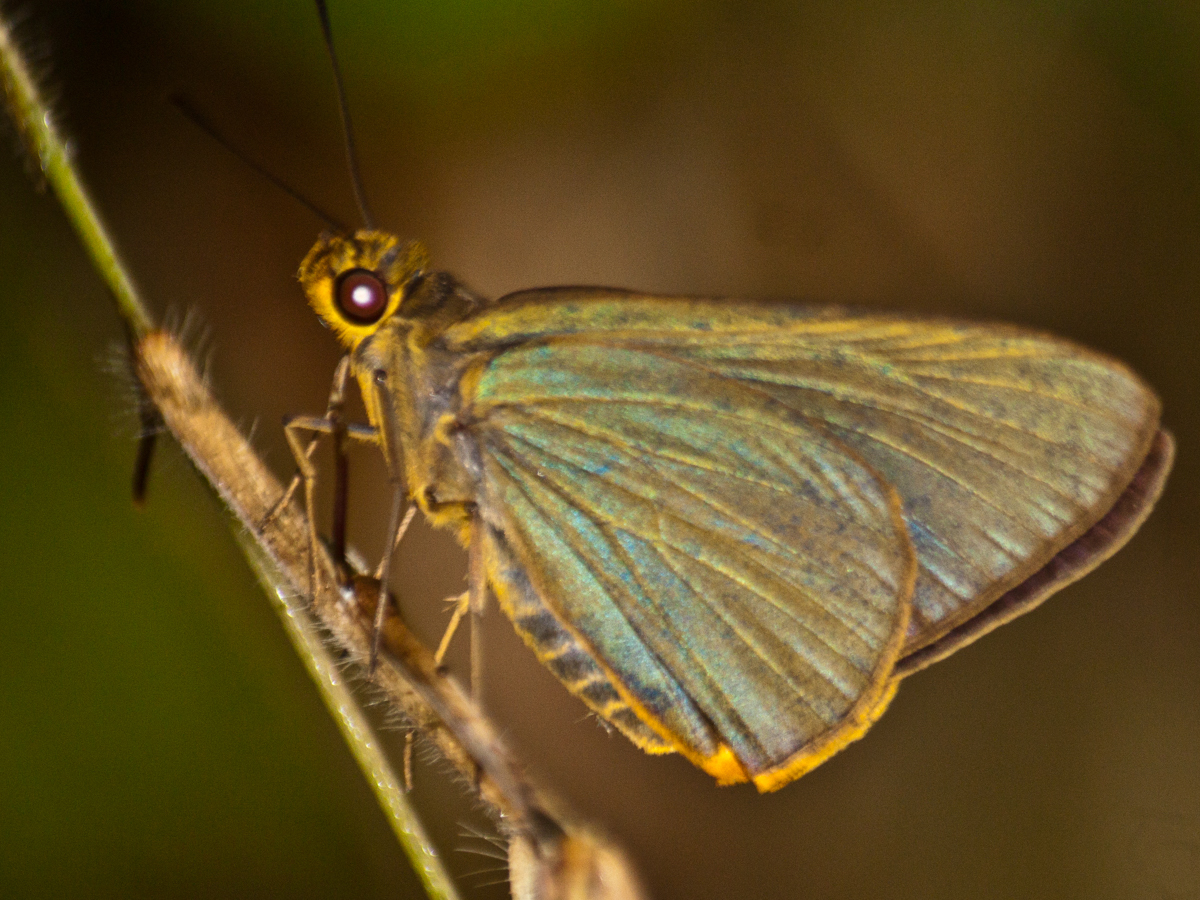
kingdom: Animalia
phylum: Arthropoda
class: Insecta
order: Lepidoptera
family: Hesperiidae
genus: Pirdana
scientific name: Pirdana distanti
